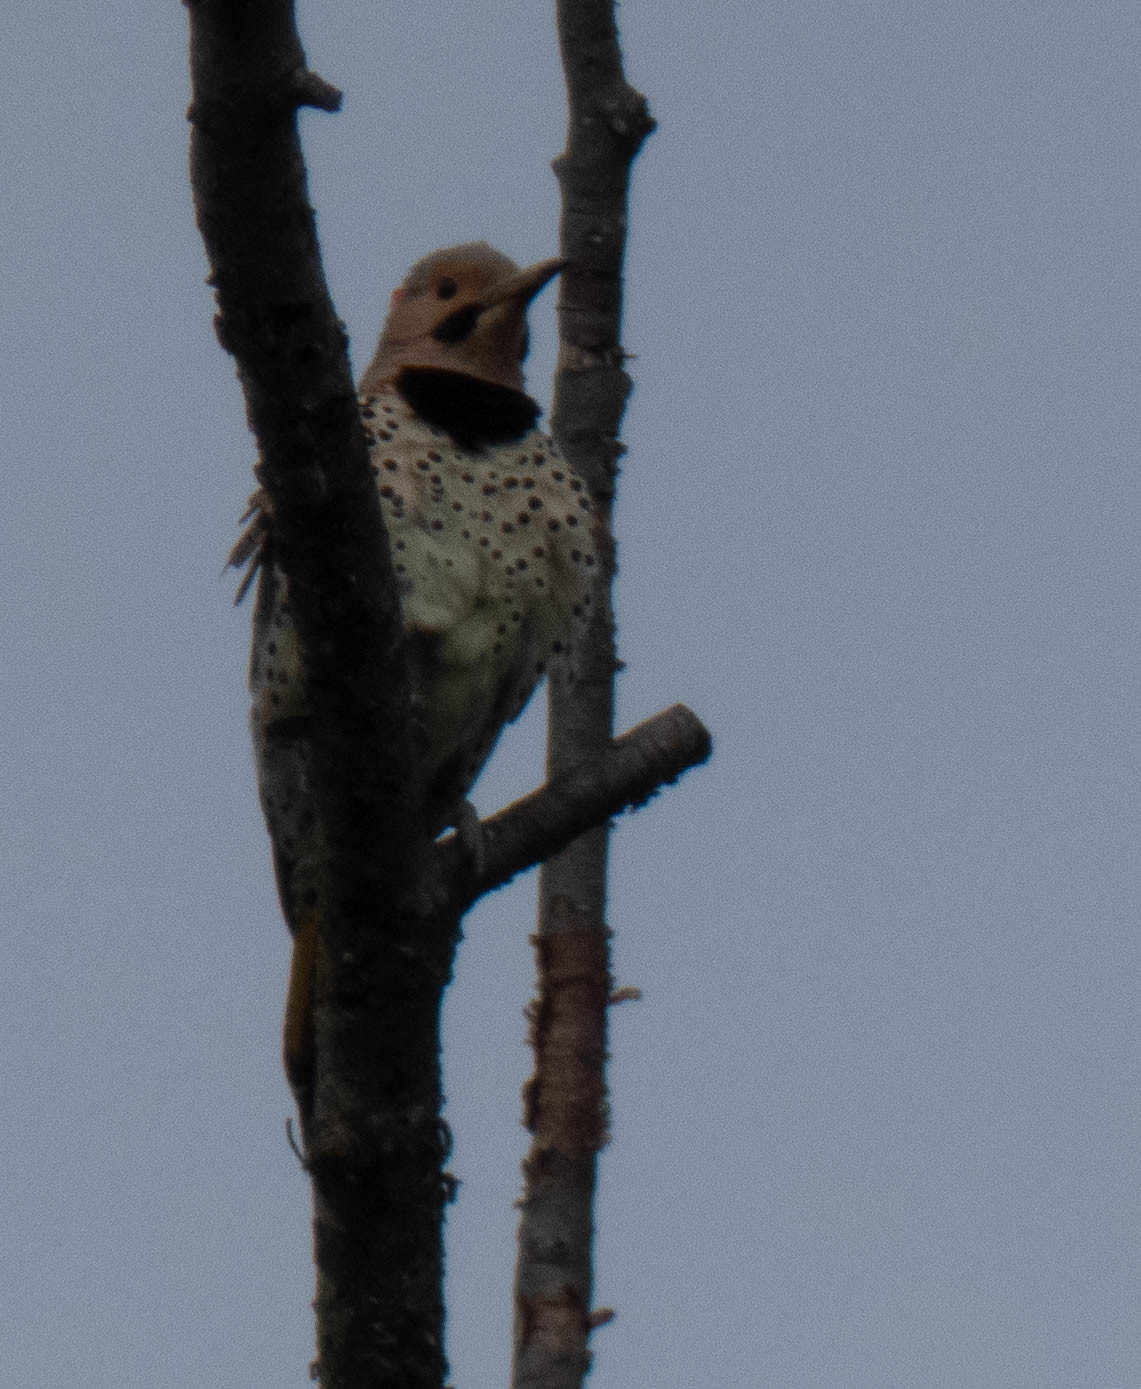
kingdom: Animalia
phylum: Chordata
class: Aves
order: Piciformes
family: Picidae
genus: Colaptes
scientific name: Colaptes auratus
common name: Northern flicker
